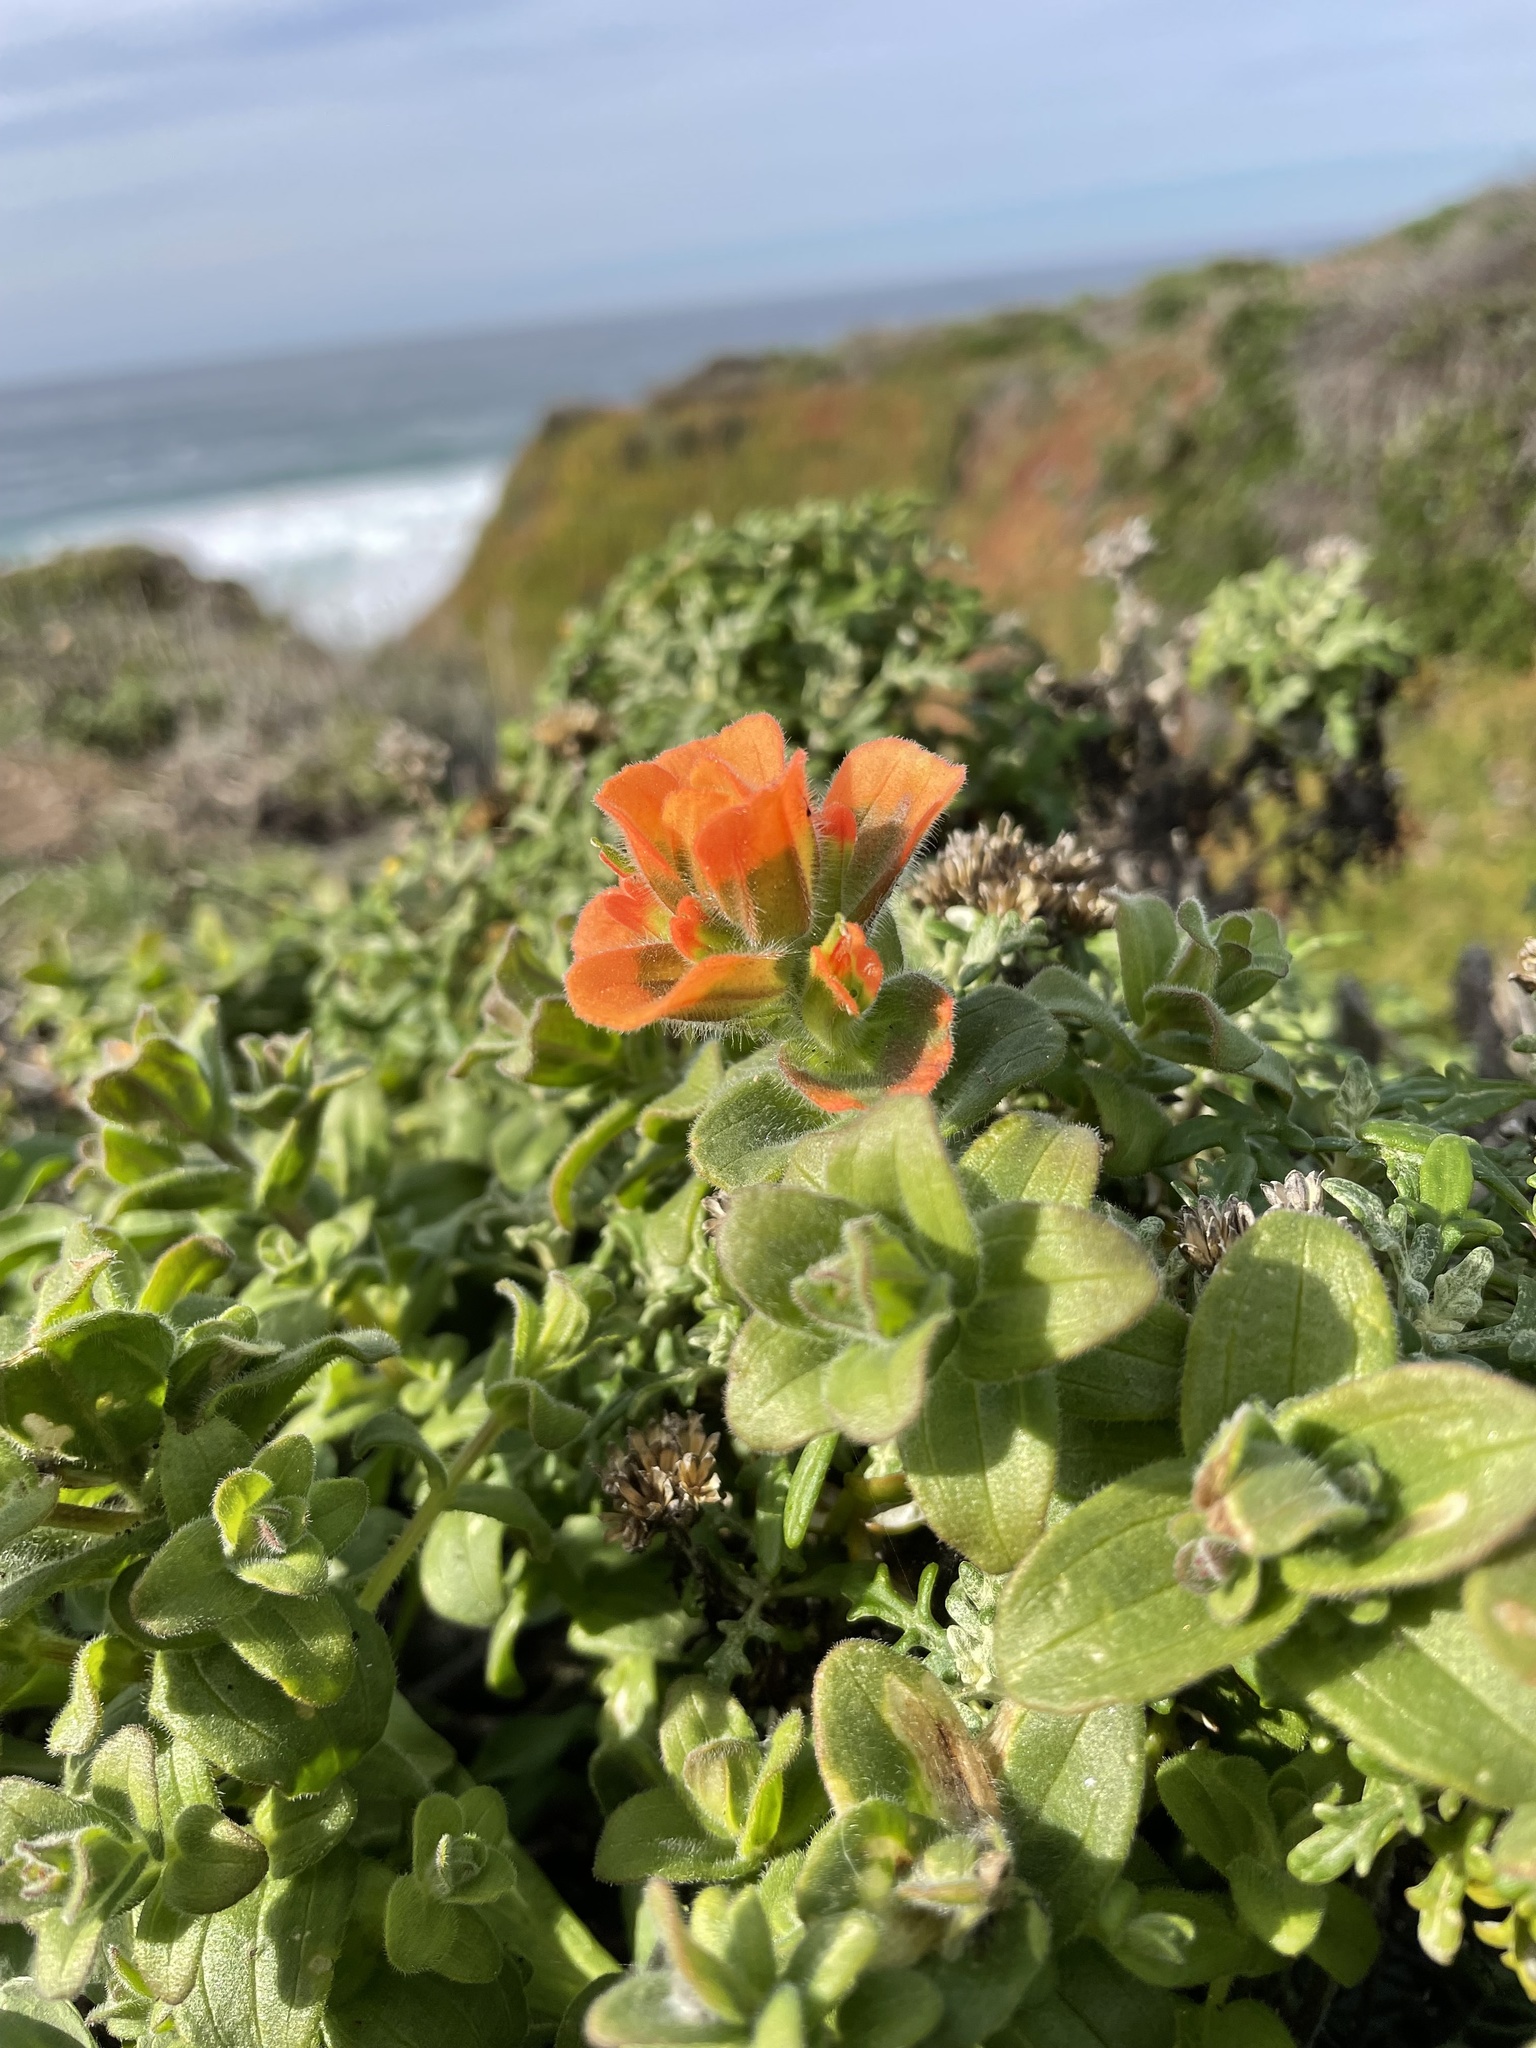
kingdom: Plantae
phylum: Tracheophyta
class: Magnoliopsida
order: Lamiales
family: Orobanchaceae
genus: Castilleja
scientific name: Castilleja latifolia
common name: Monterey indian paintbrush
